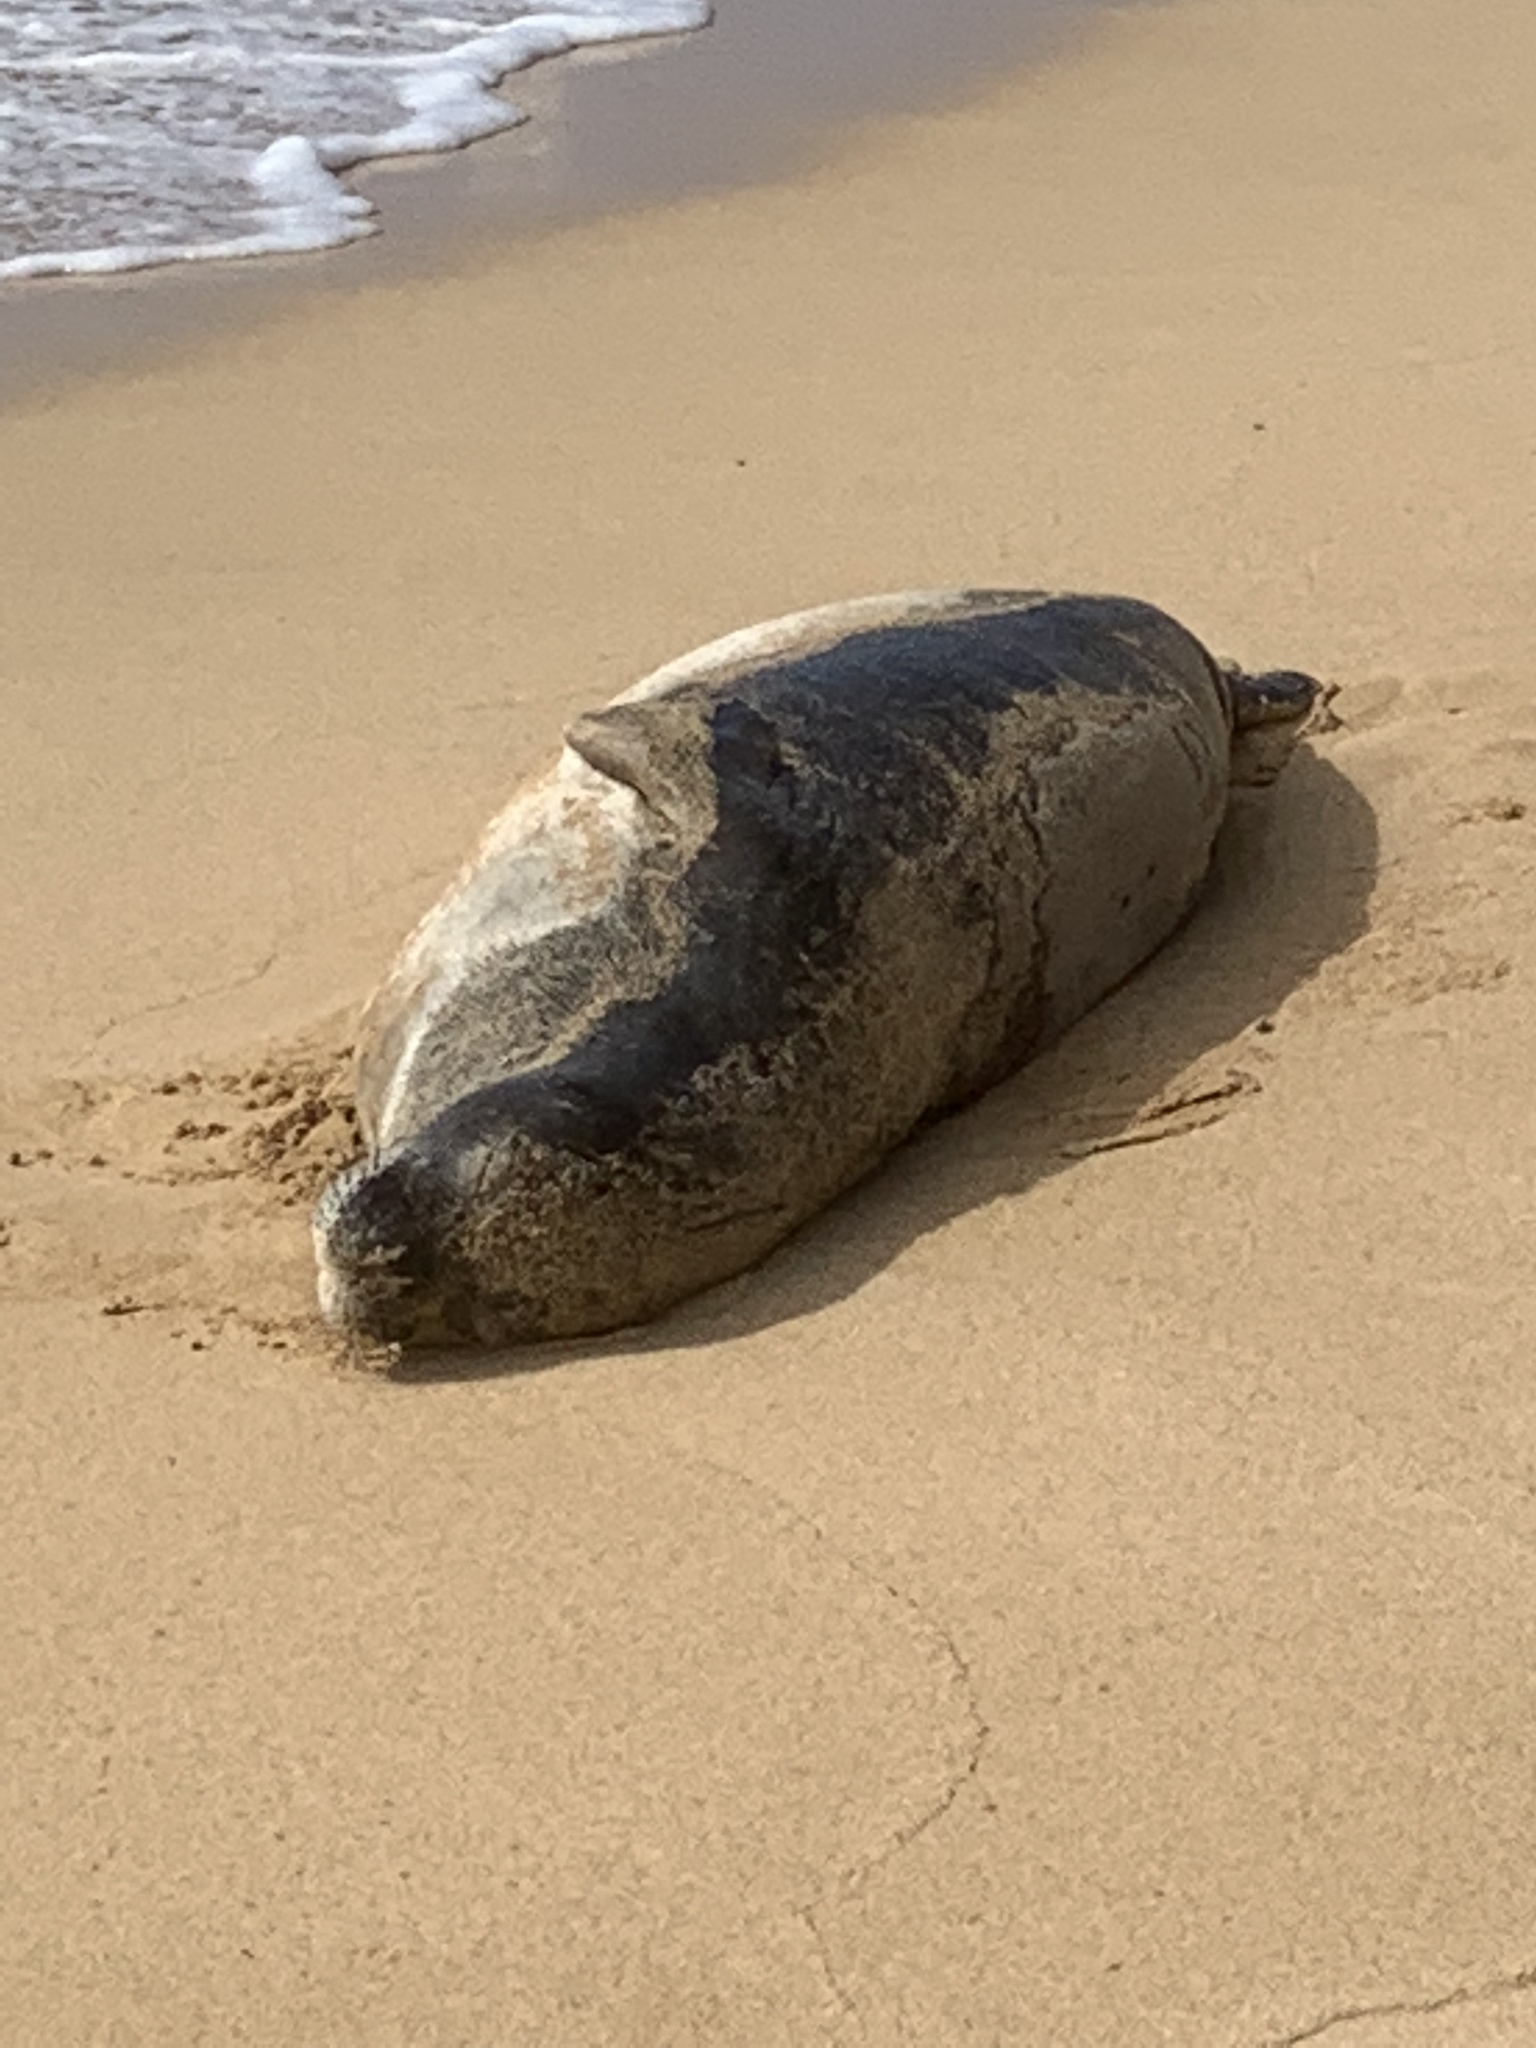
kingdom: Animalia
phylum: Chordata
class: Mammalia
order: Carnivora
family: Phocidae
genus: Neomonachus
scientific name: Neomonachus schauinslandi
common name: Hawaiian monk seal
